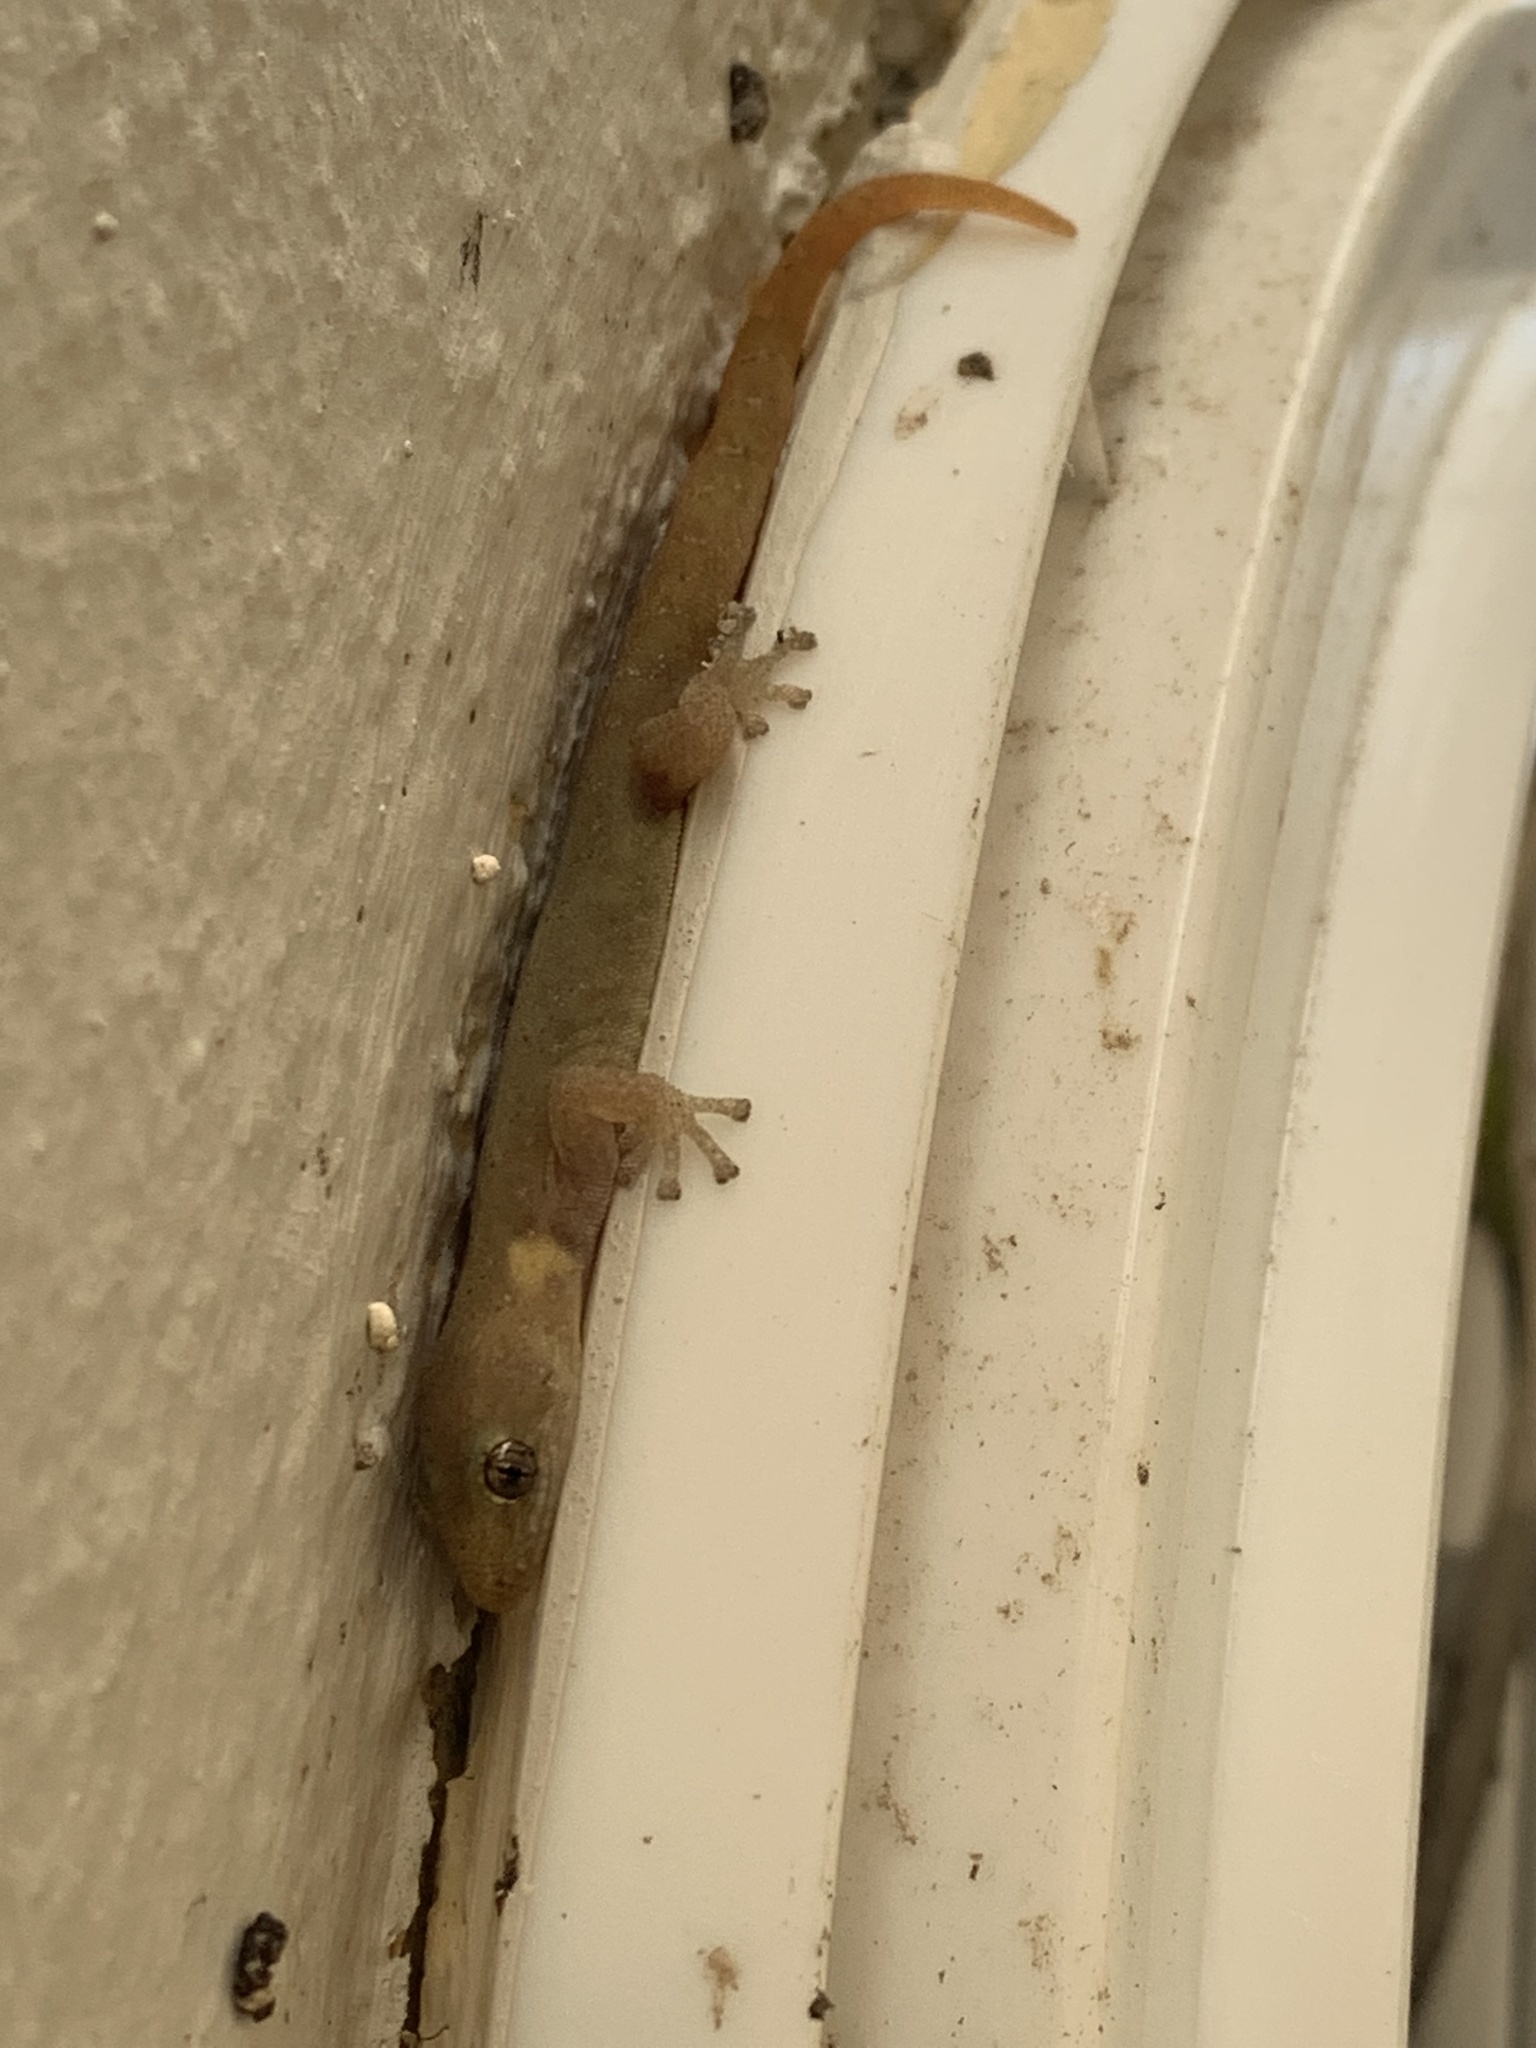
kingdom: Animalia
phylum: Chordata
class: Squamata
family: Gekkonidae
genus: Afrogecko
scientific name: Afrogecko porphyreus
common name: Marbled leaf-toed gecko
